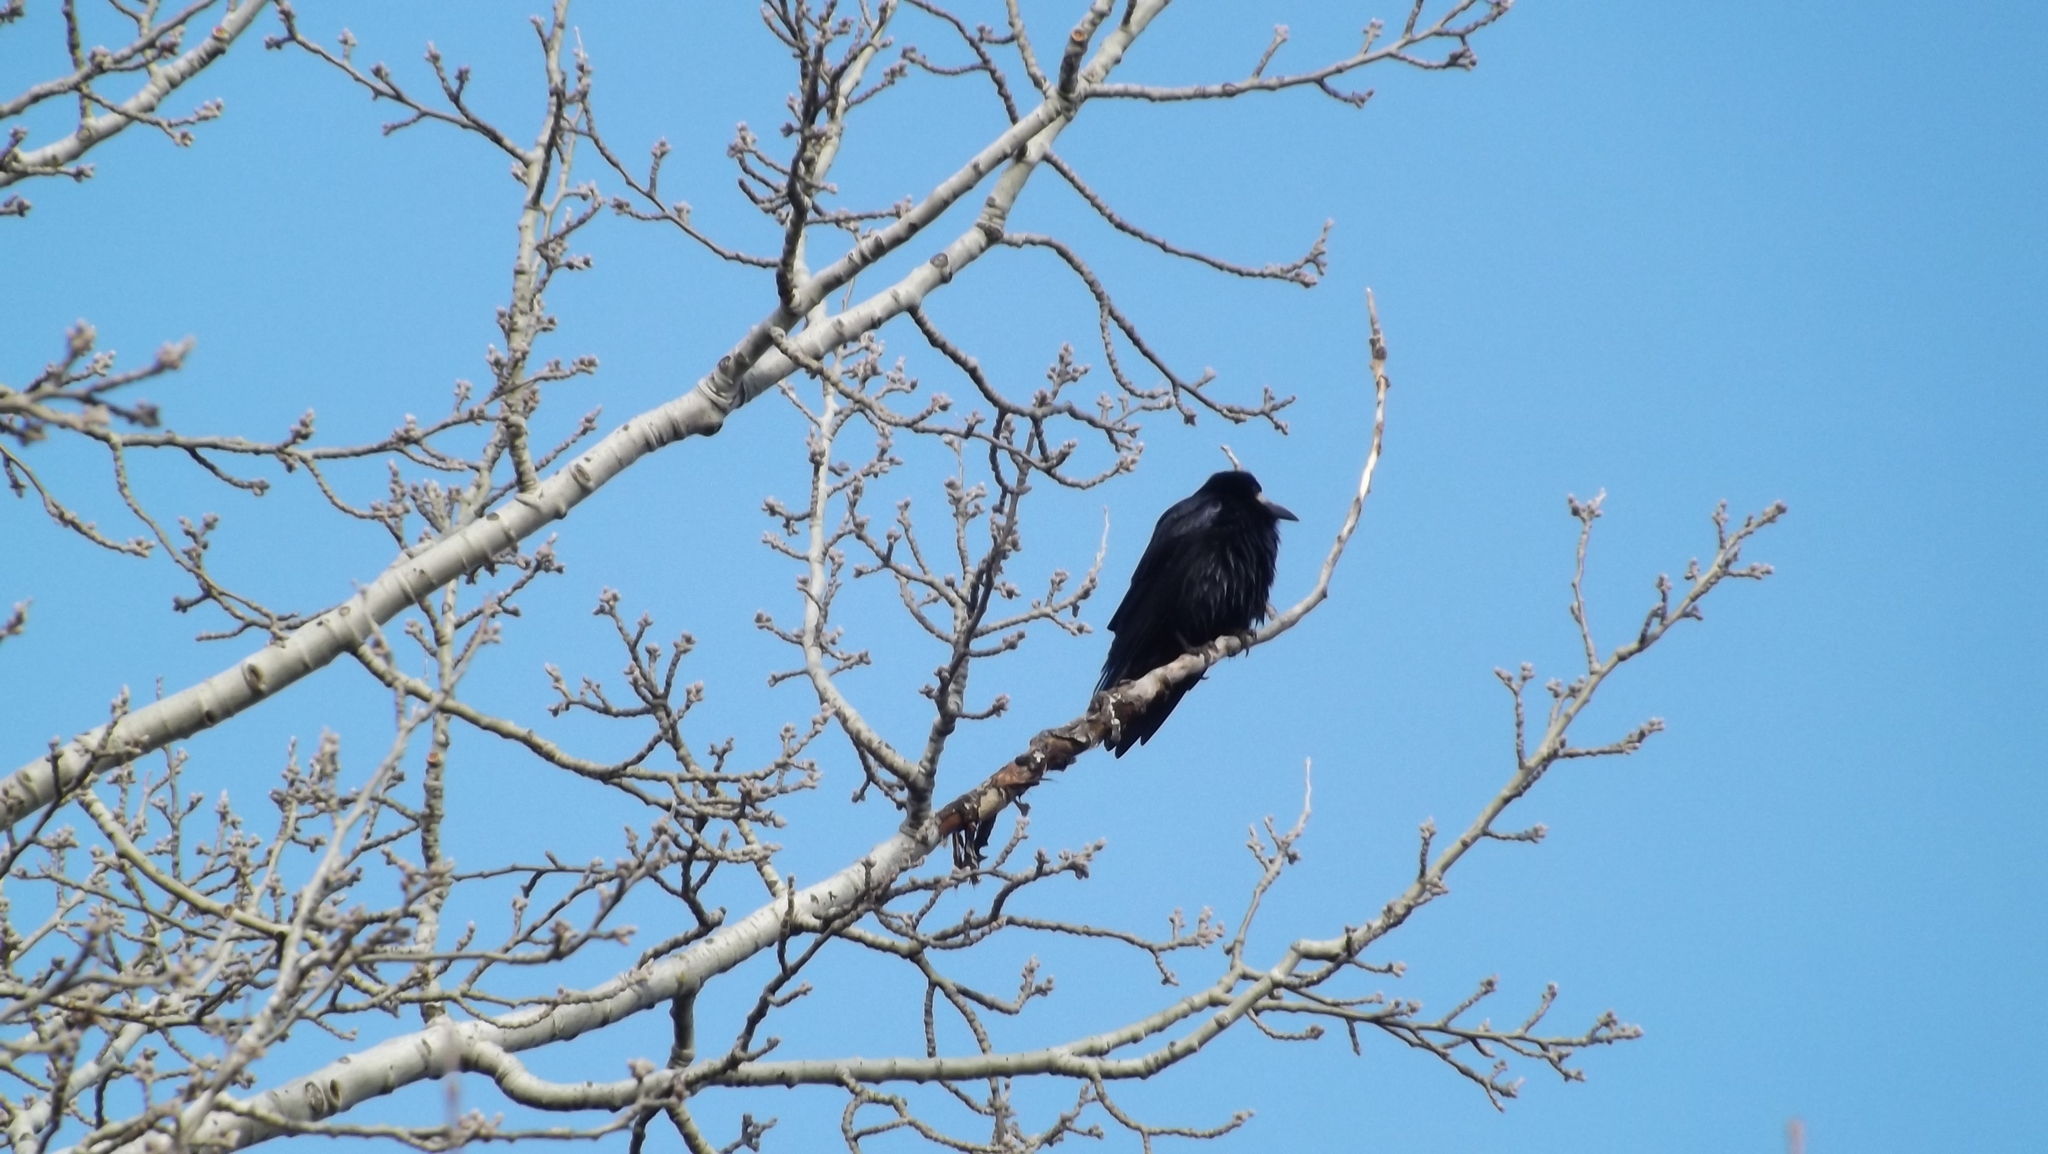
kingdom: Animalia
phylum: Chordata
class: Aves
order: Passeriformes
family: Corvidae
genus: Corvus
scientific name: Corvus frugilegus
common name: Rook
